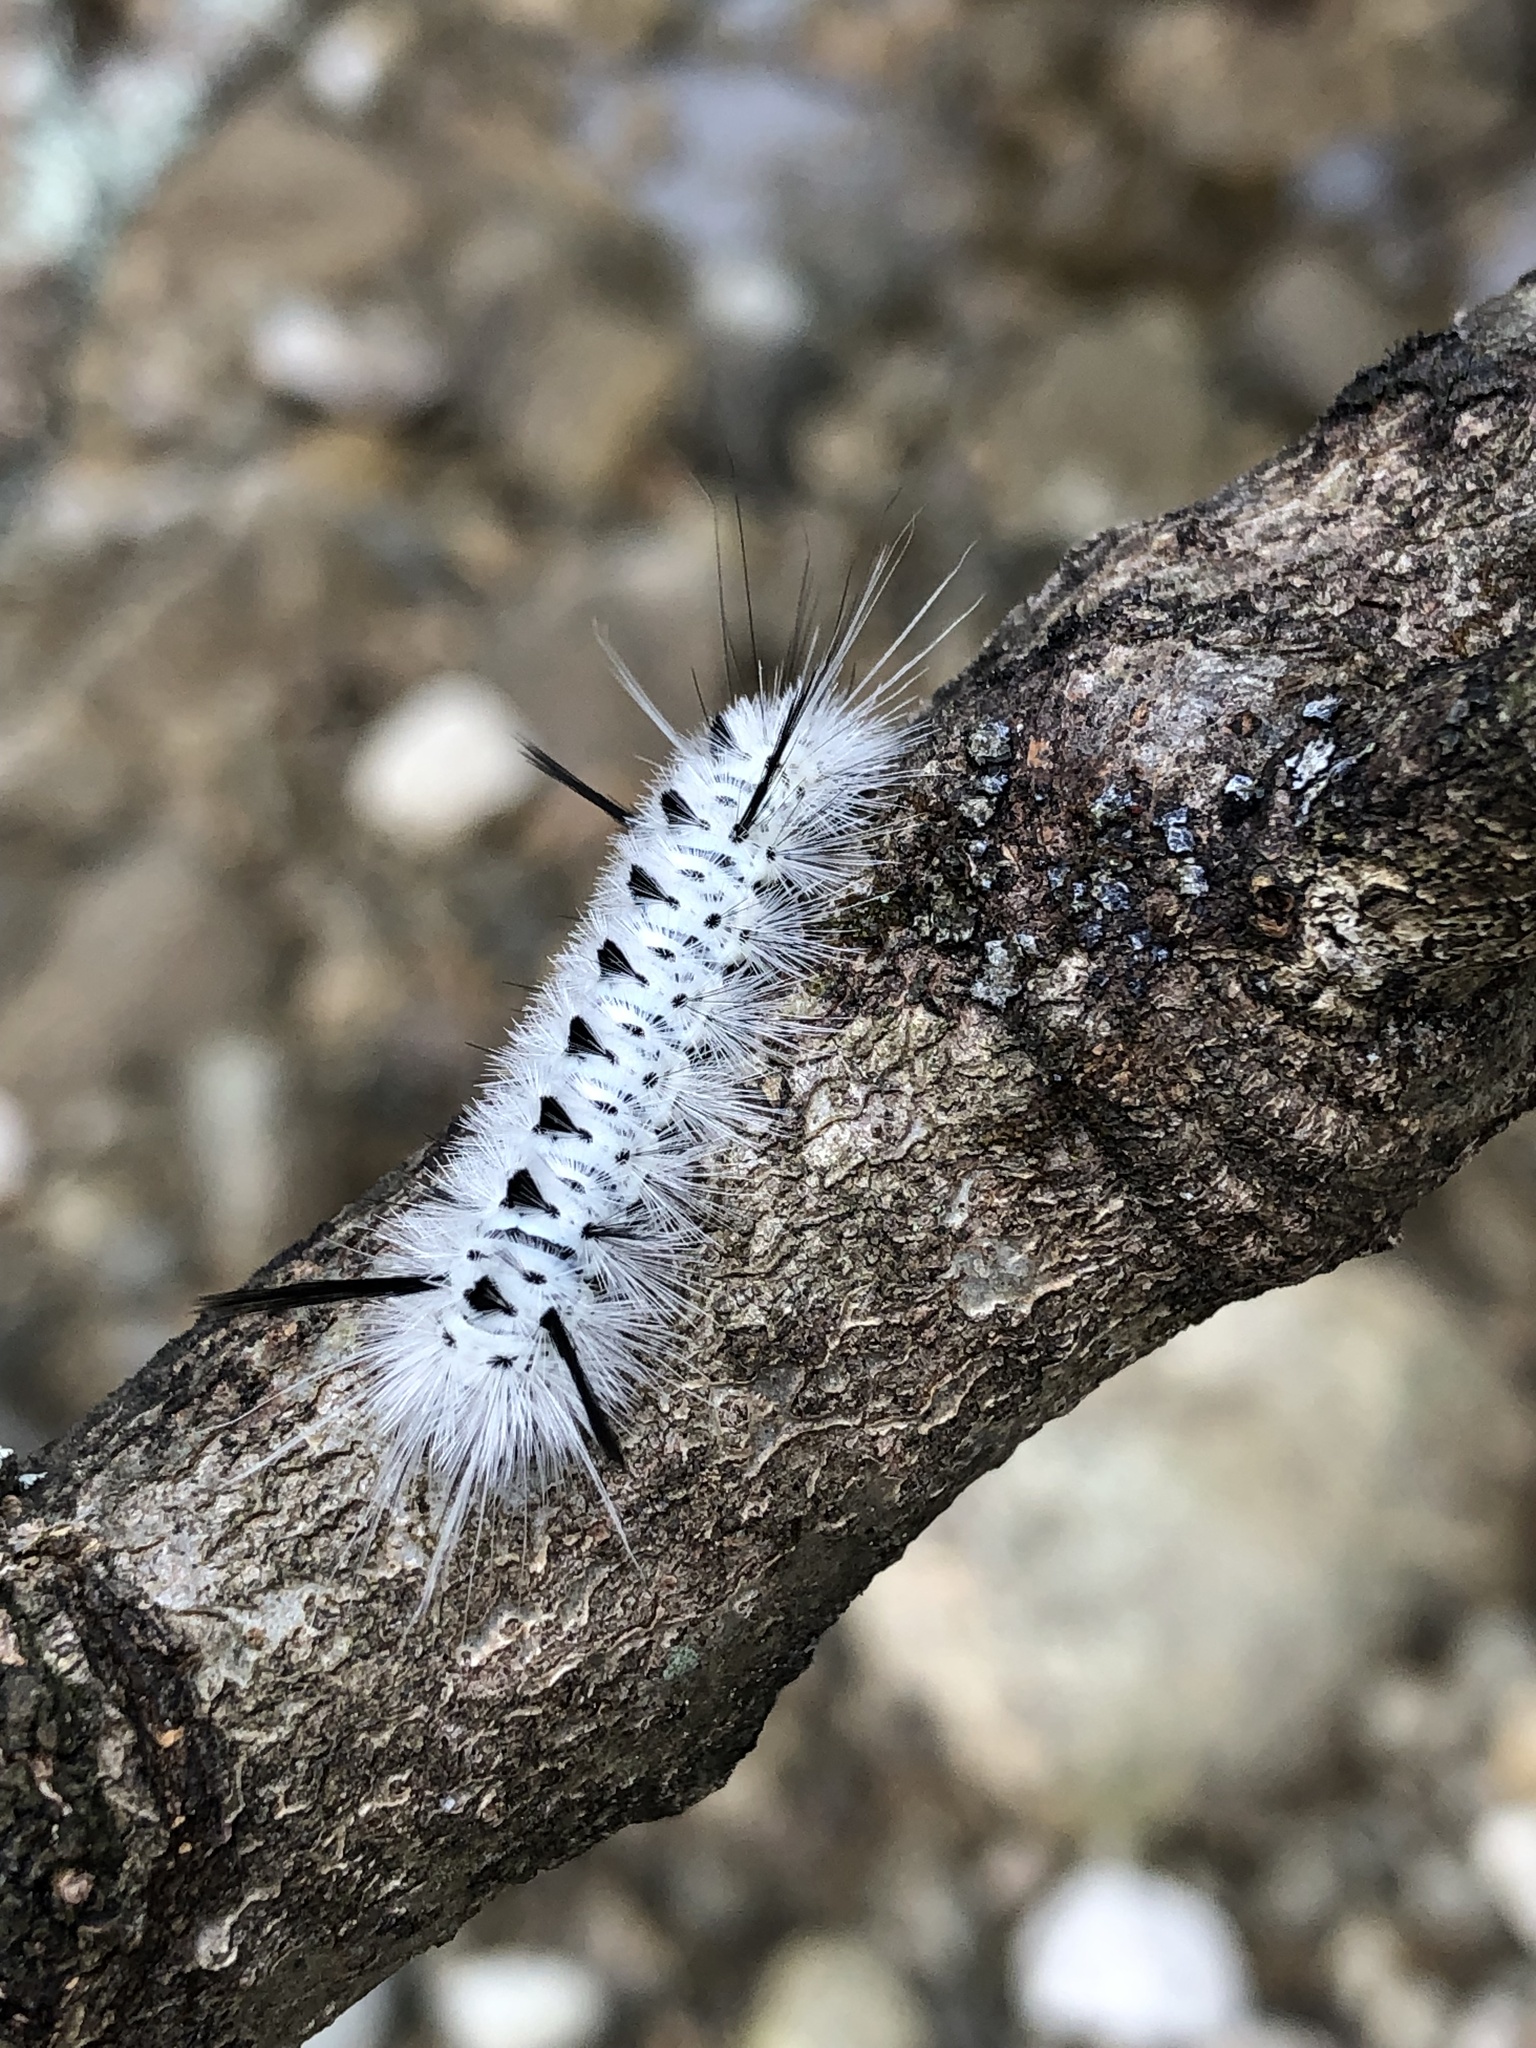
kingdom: Animalia
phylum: Arthropoda
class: Insecta
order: Lepidoptera
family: Erebidae
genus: Lophocampa
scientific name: Lophocampa caryae
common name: Hickory tussock moth
